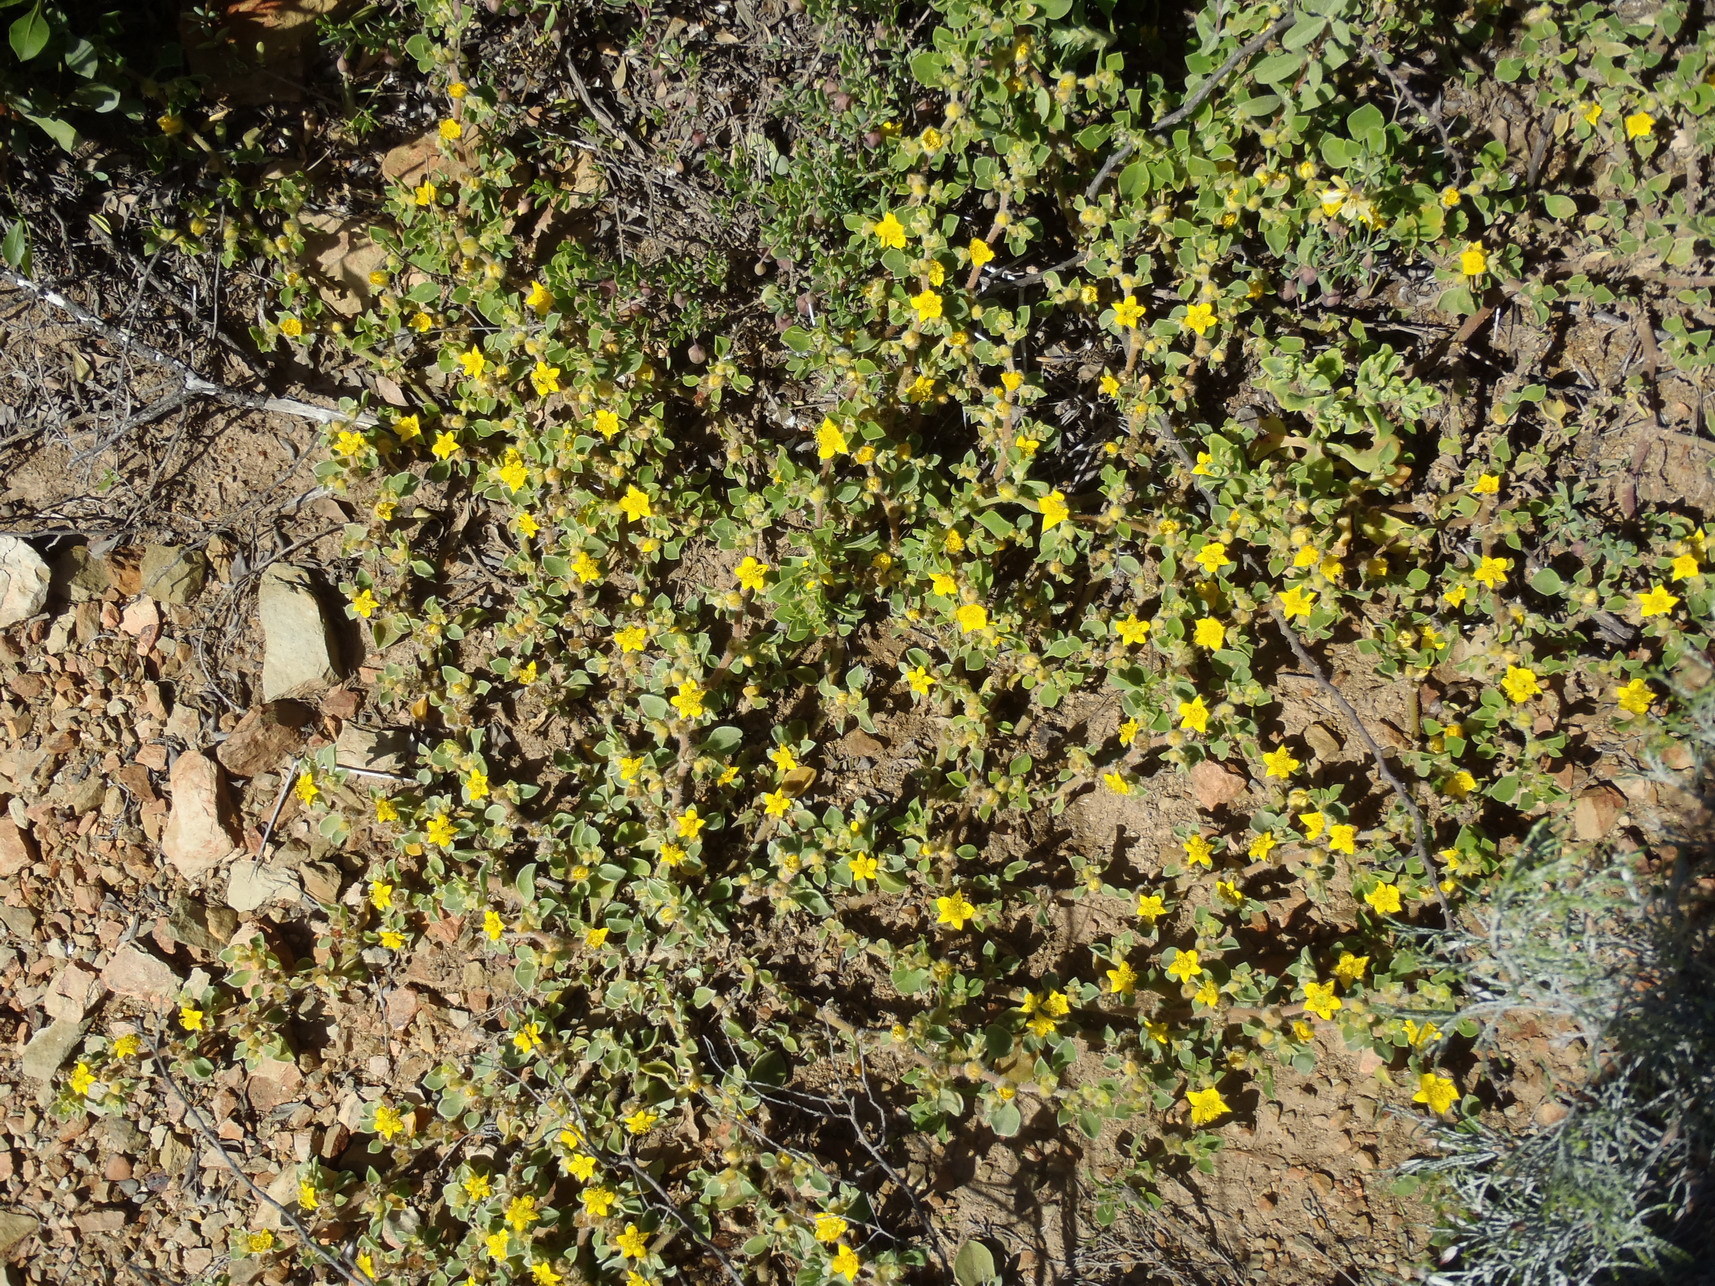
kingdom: Plantae
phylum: Tracheophyta
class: Magnoliopsida
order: Caryophyllales
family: Aizoaceae
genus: Aizoon
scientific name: Aizoon glinoides
